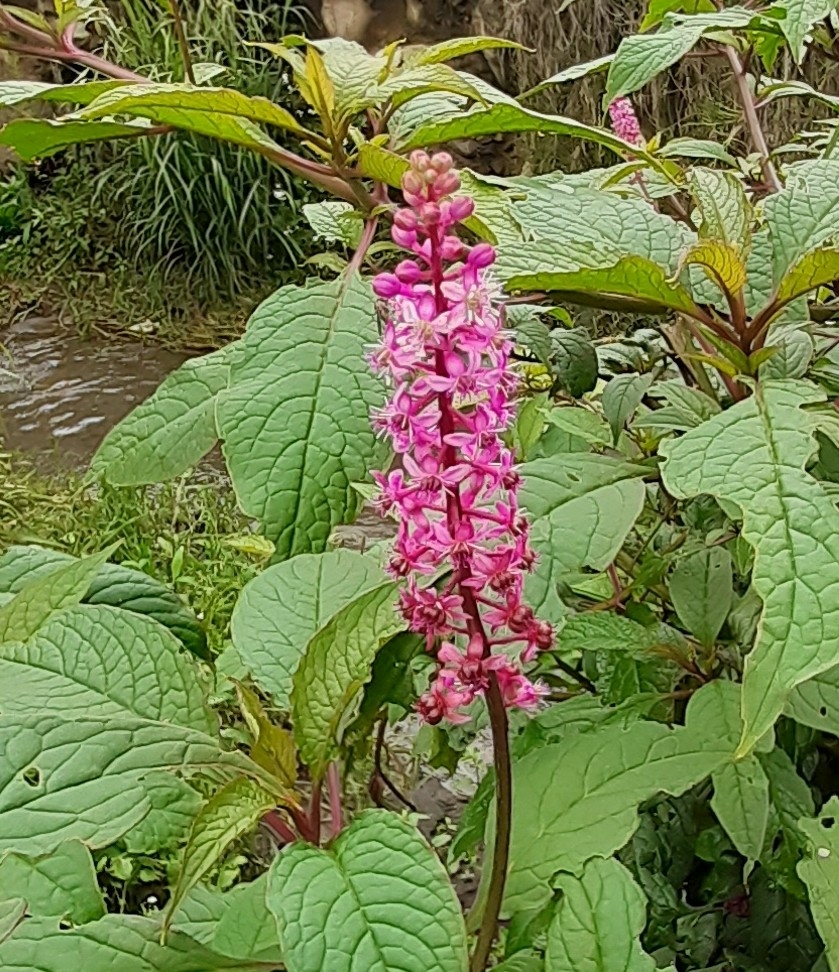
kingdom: Plantae
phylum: Tracheophyta
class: Magnoliopsida
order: Caryophyllales
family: Phytolaccaceae
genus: Phytolacca
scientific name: Phytolacca rugosa
